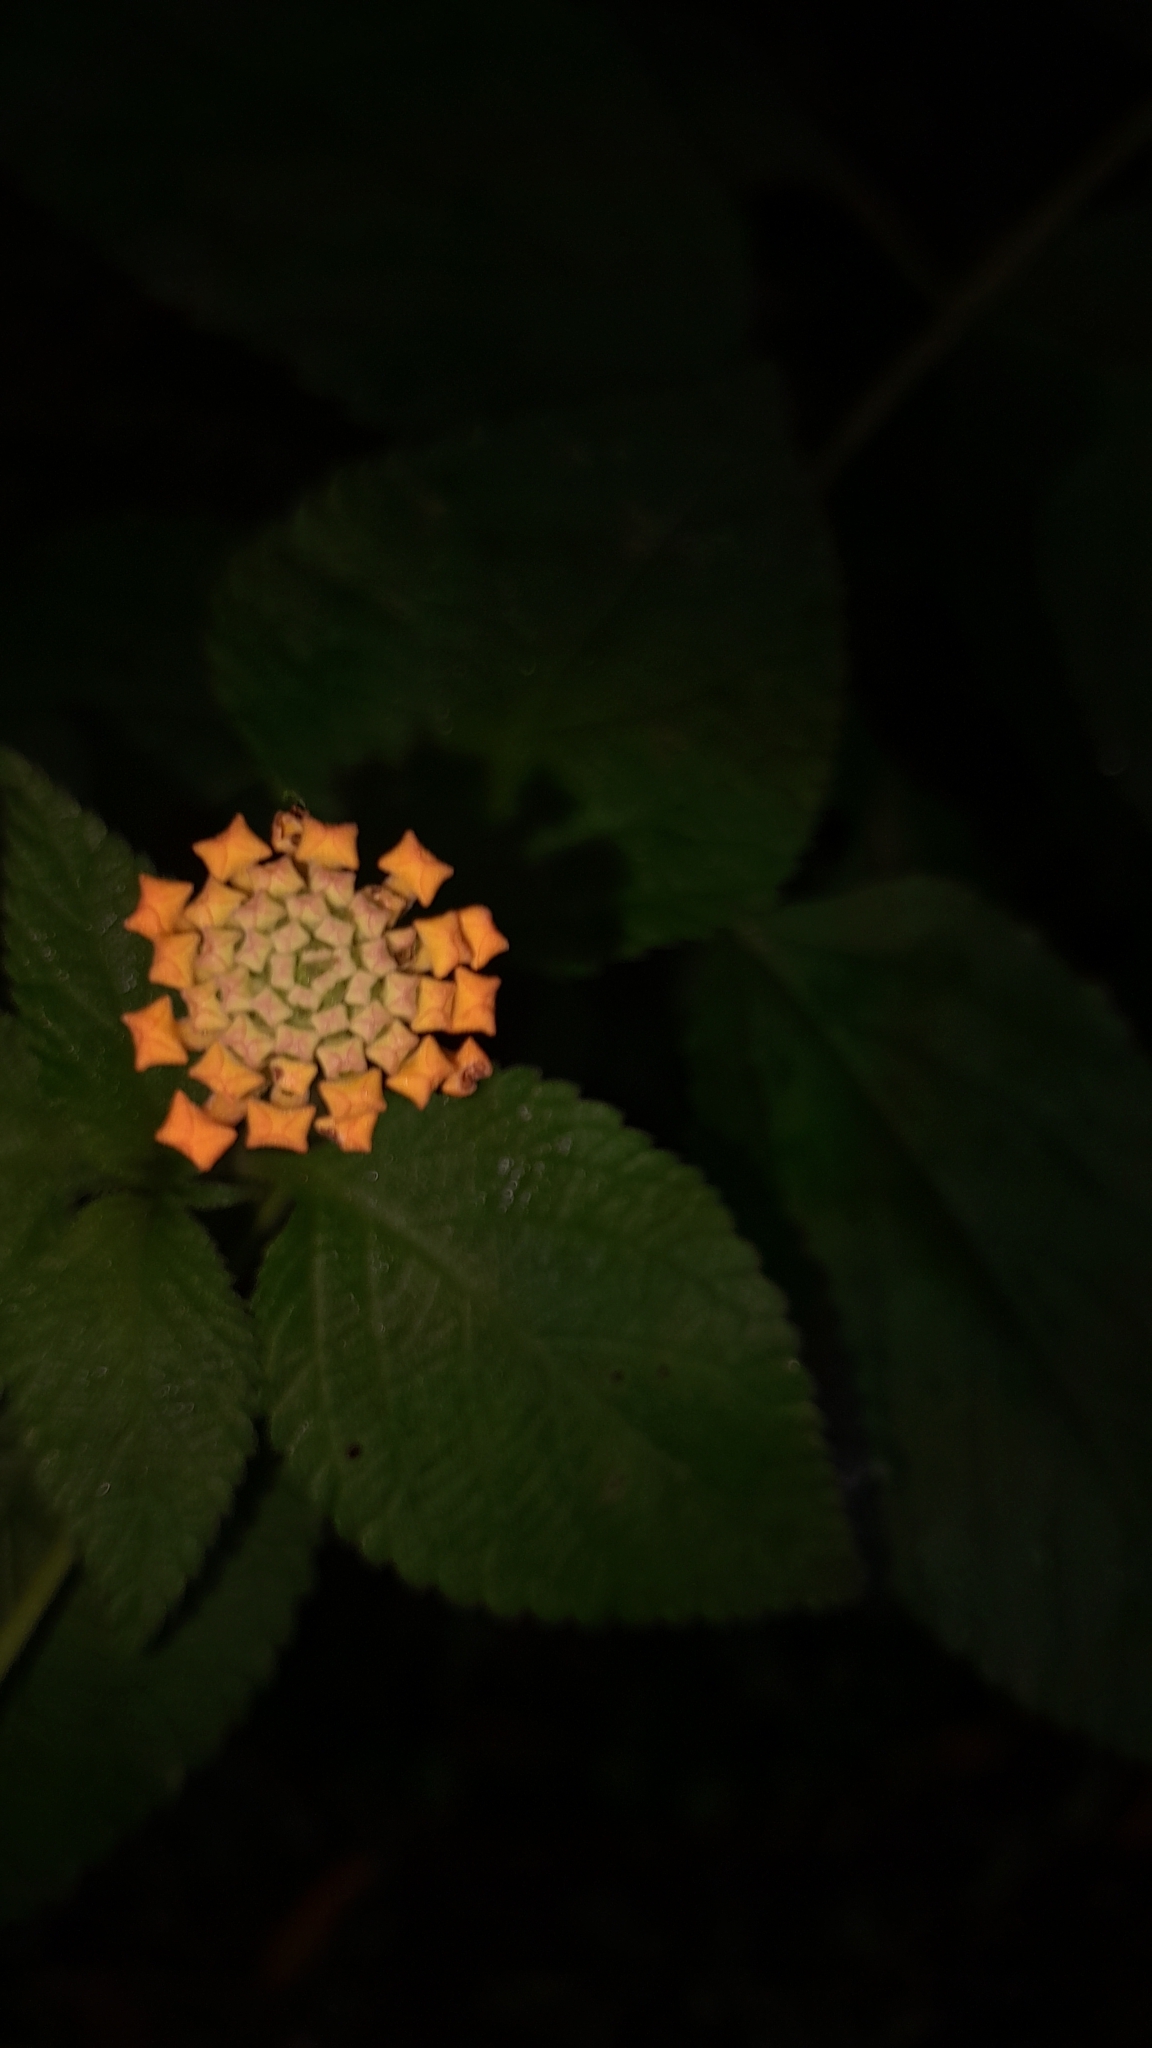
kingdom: Plantae
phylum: Tracheophyta
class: Magnoliopsida
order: Lamiales
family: Verbenaceae
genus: Lantana
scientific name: Lantana camara
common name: Lantana
